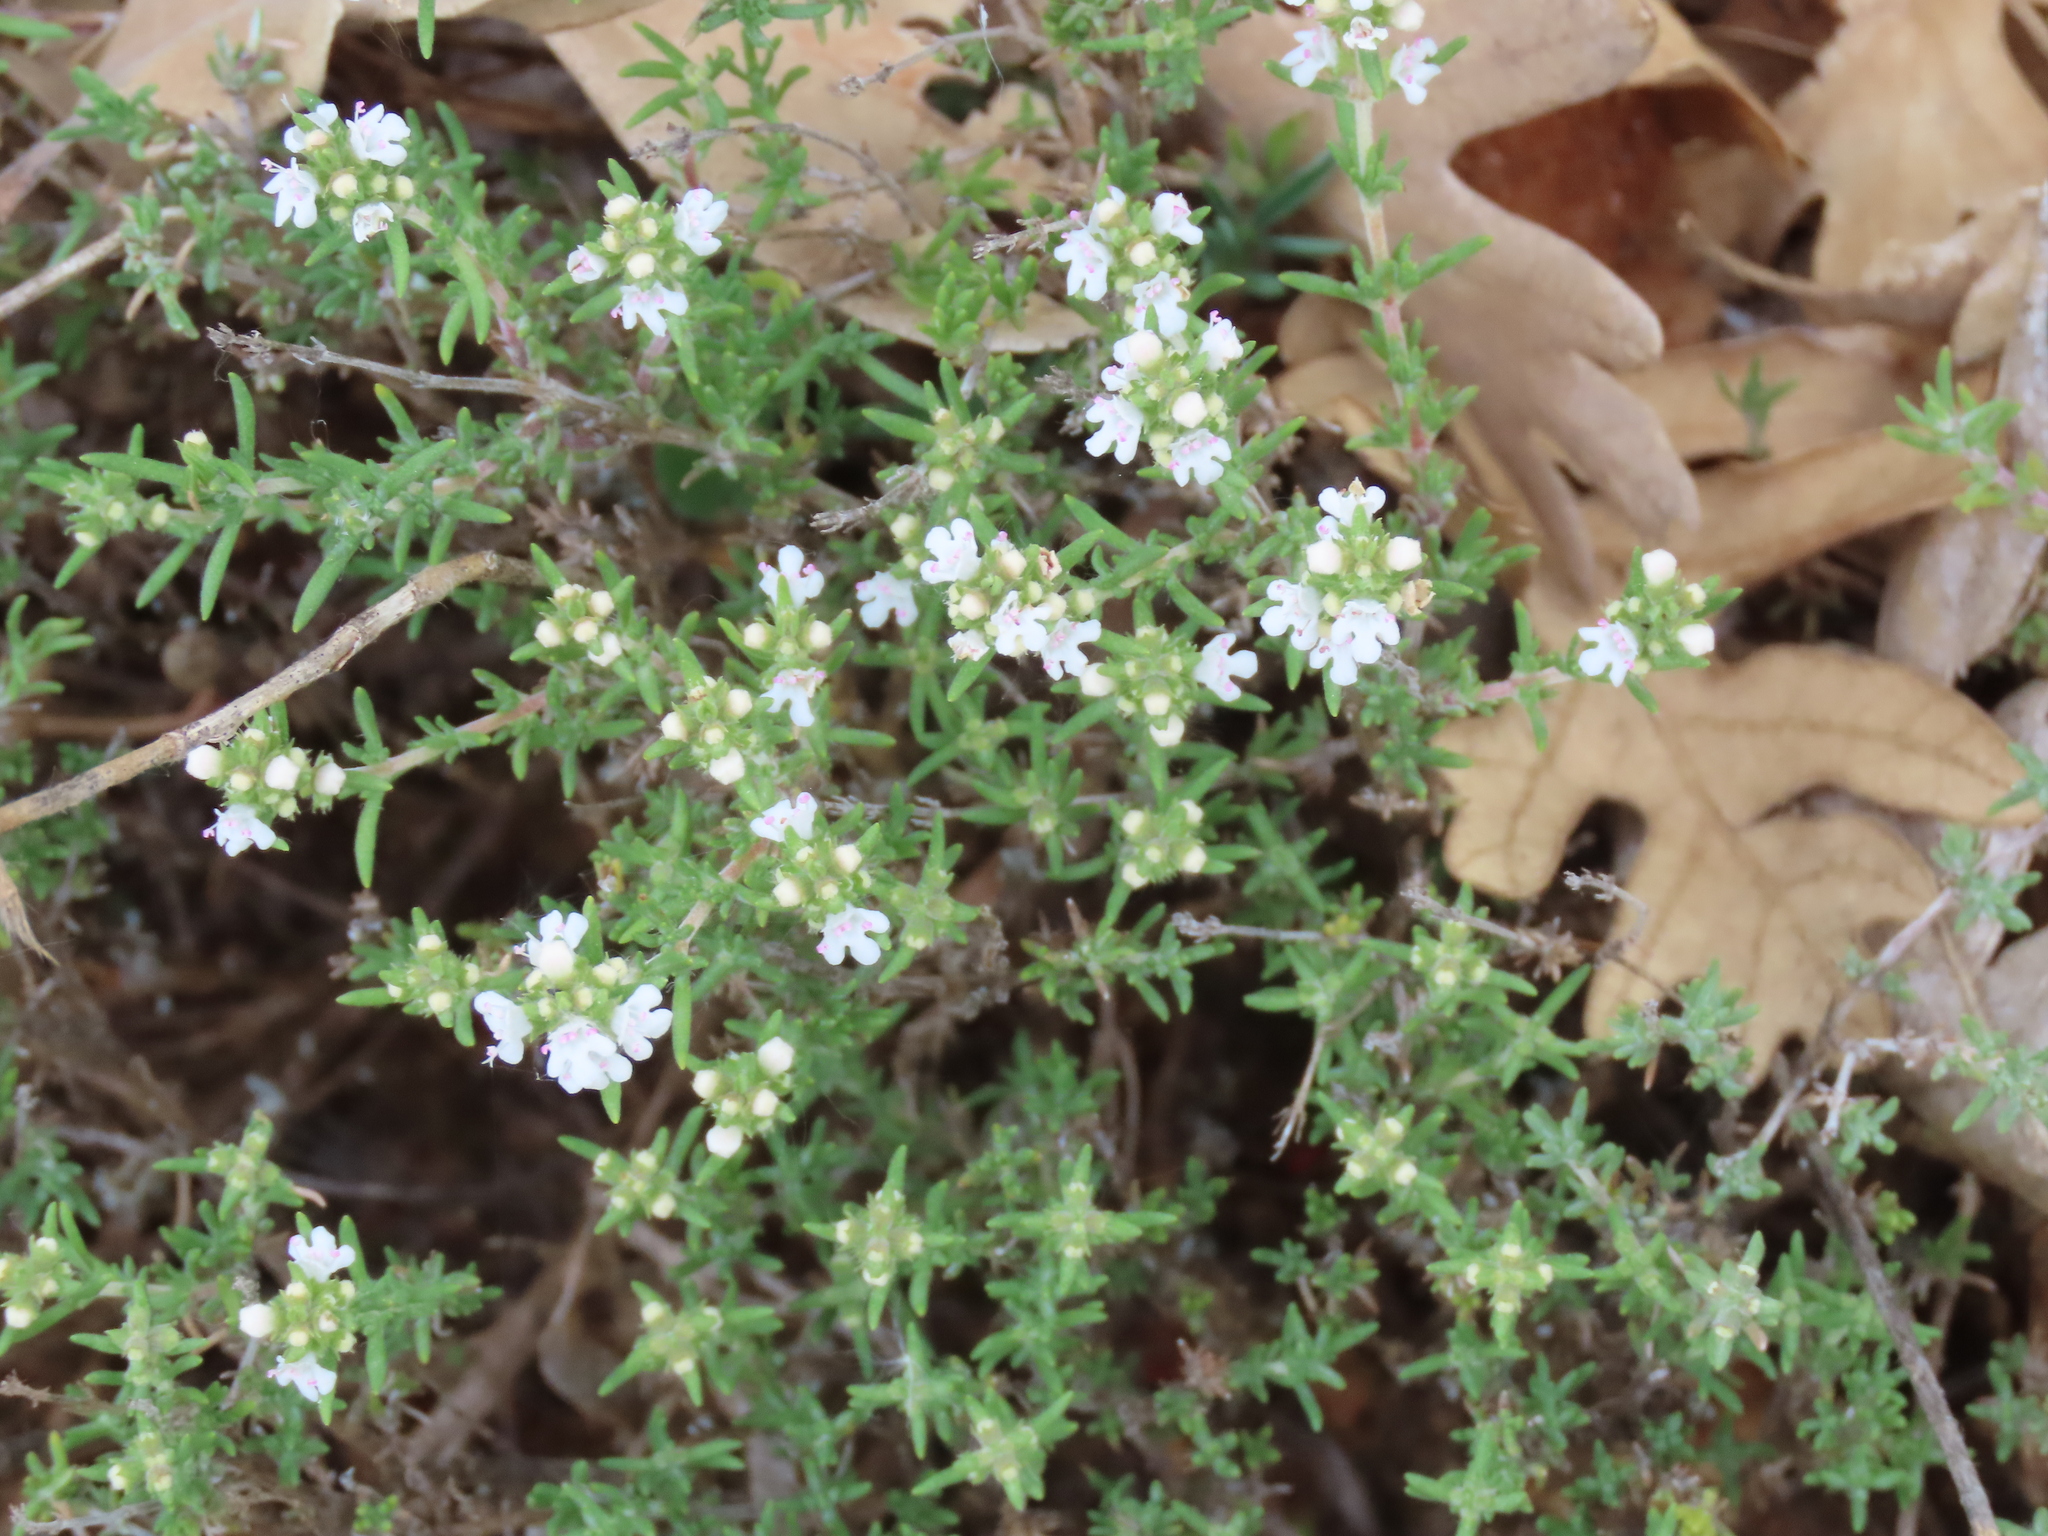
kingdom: Plantae
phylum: Tracheophyta
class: Magnoliopsida
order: Lamiales
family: Lamiaceae
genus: Thymus
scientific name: Thymus zygis
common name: White thyme
